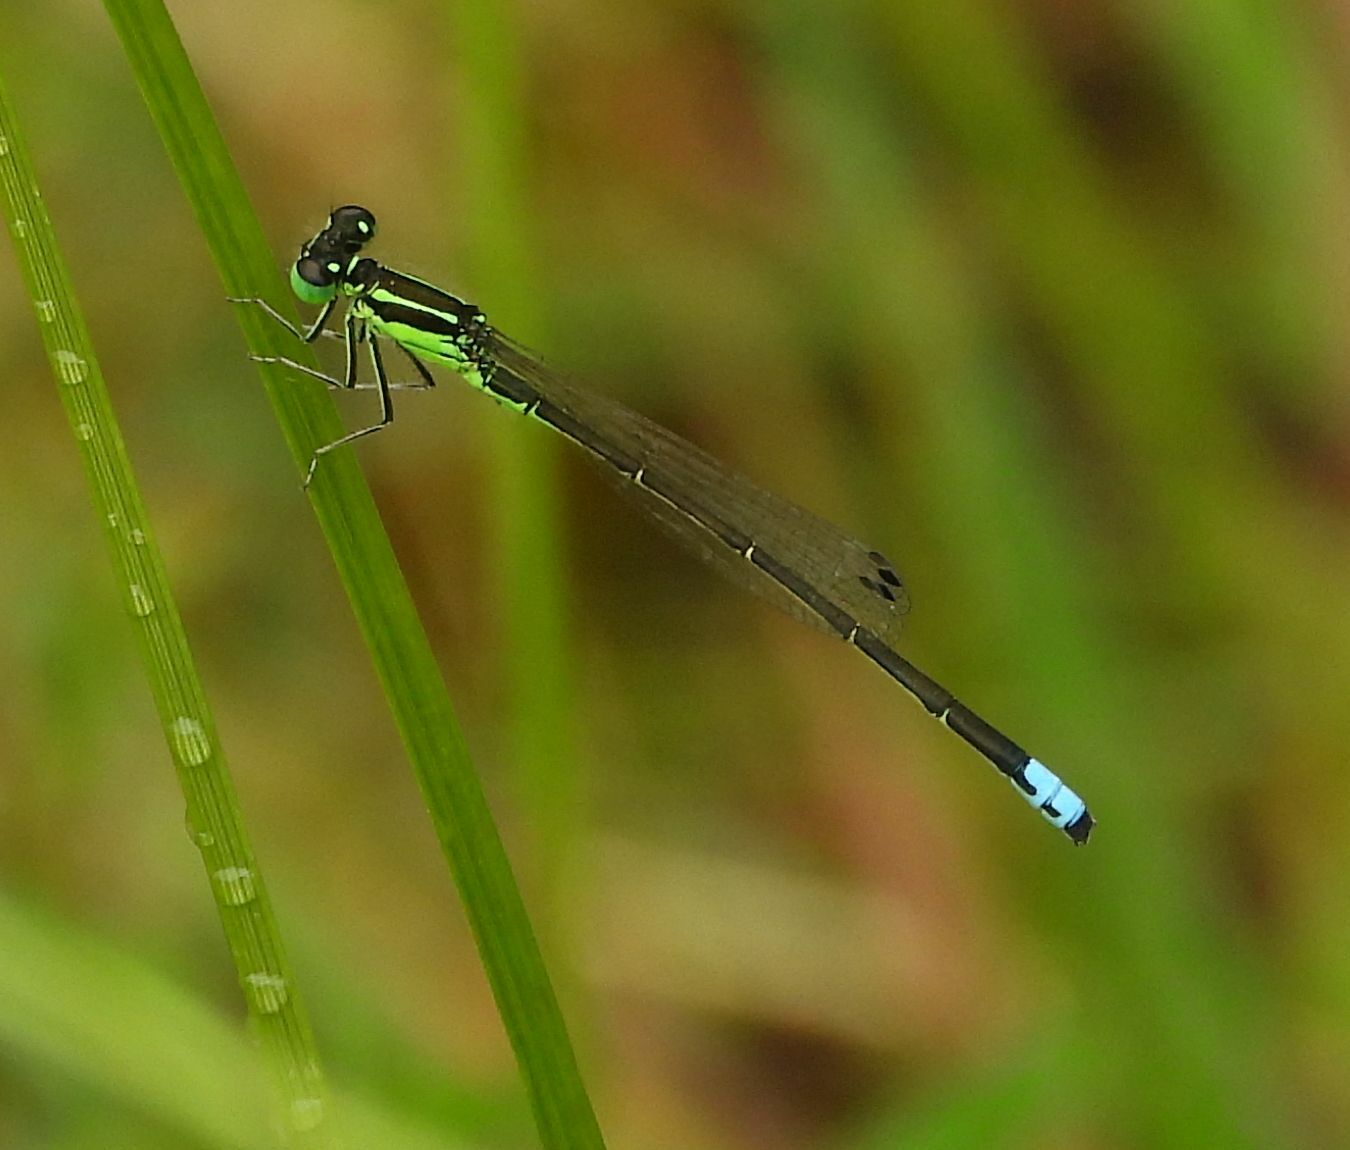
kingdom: Animalia
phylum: Arthropoda
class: Insecta
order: Odonata
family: Coenagrionidae
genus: Ischnura
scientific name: Ischnura verticalis
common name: Eastern forktail
